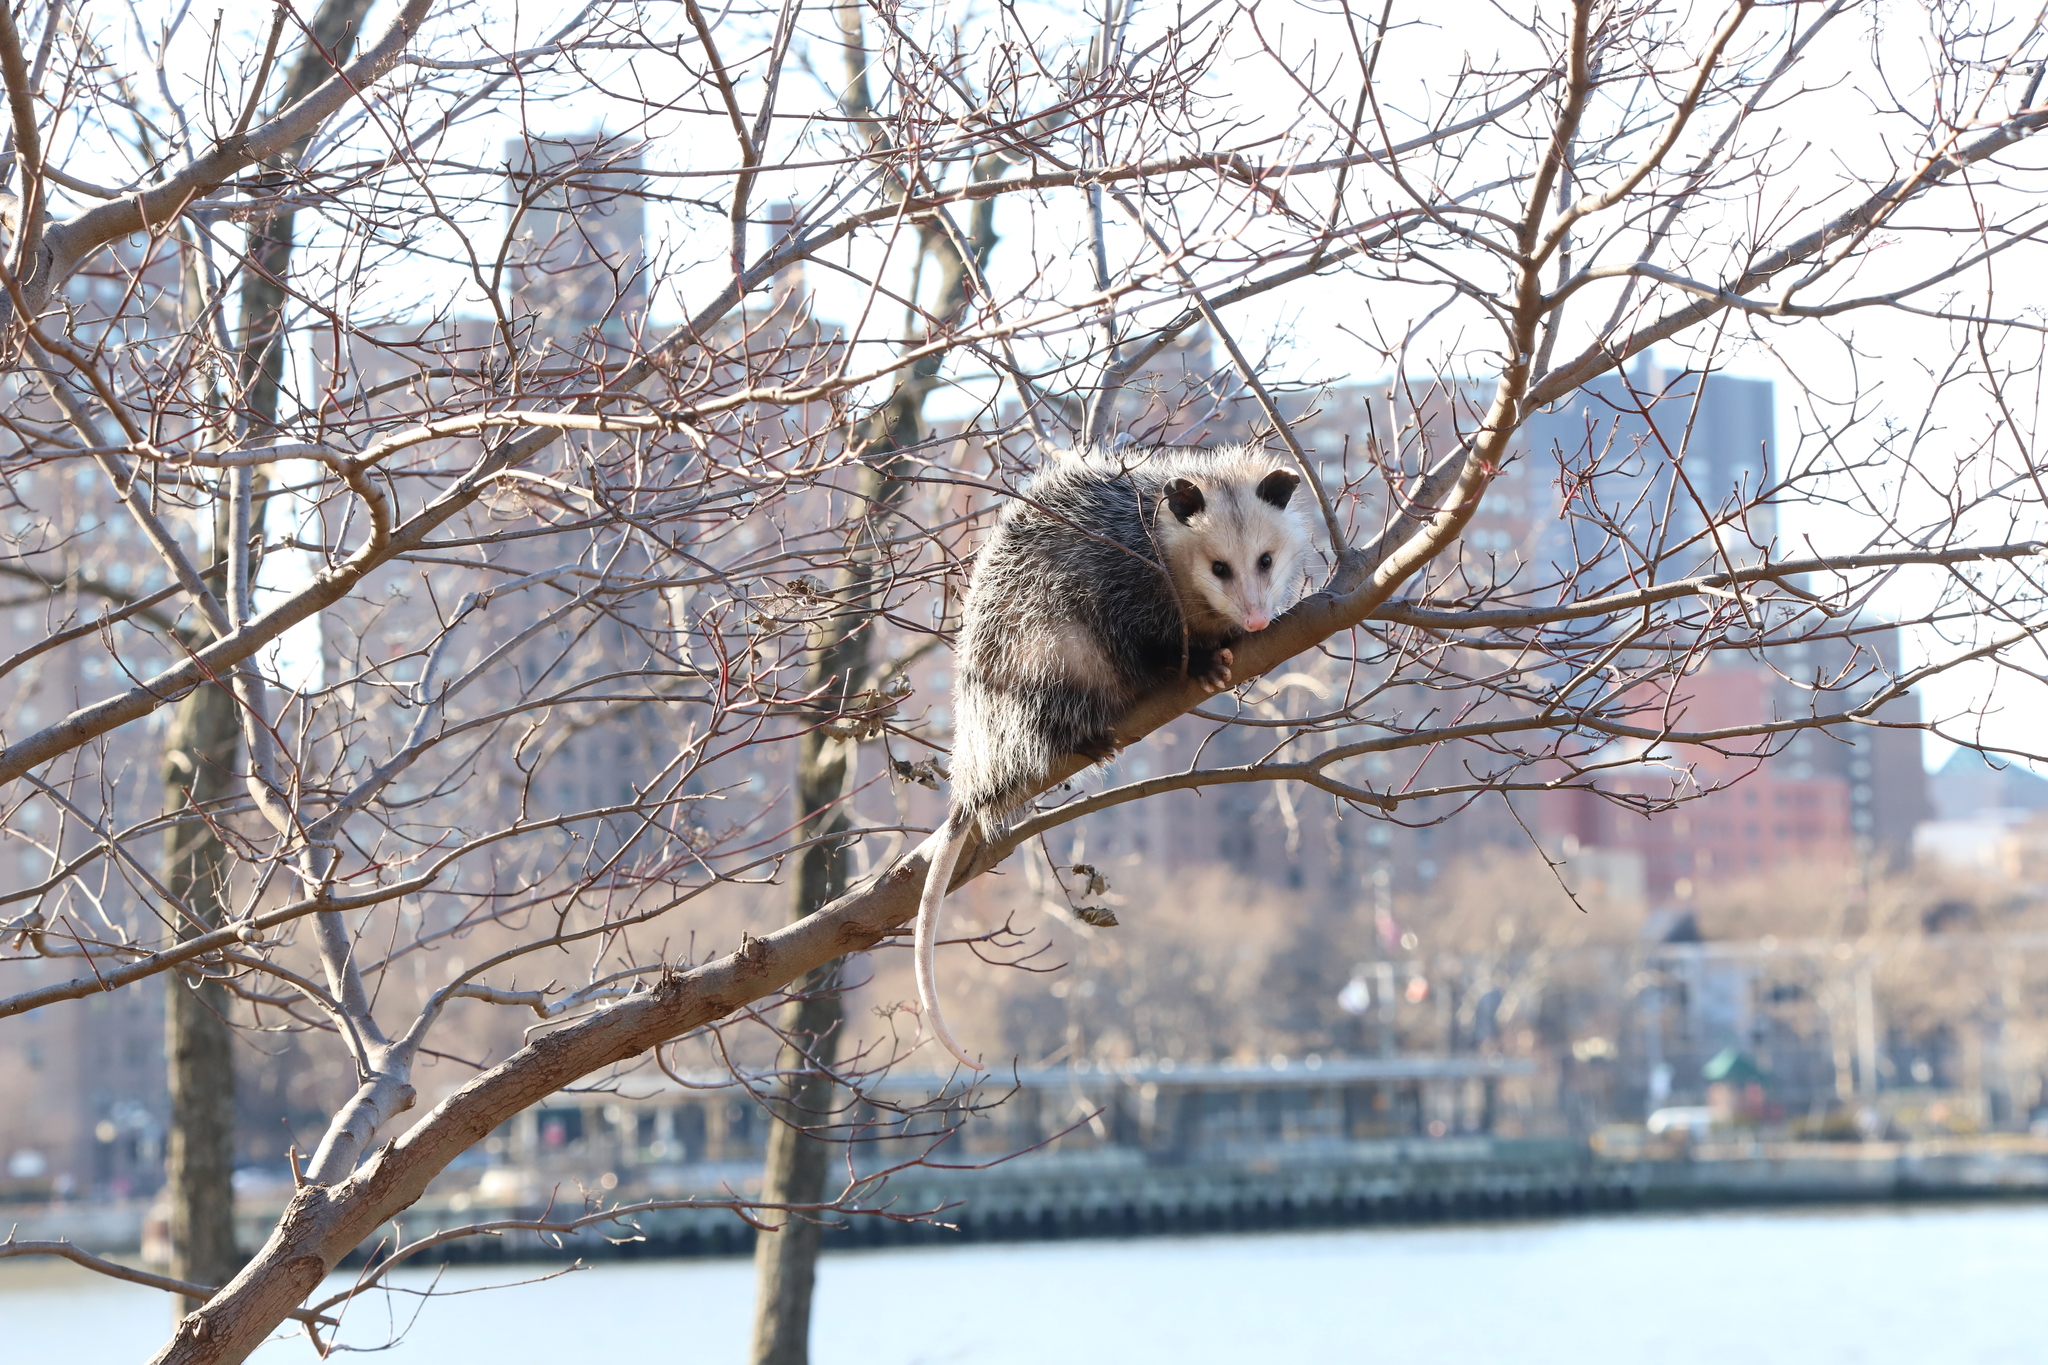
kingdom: Animalia
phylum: Chordata
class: Mammalia
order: Didelphimorphia
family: Didelphidae
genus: Didelphis
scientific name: Didelphis virginiana
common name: Virginia opossum
